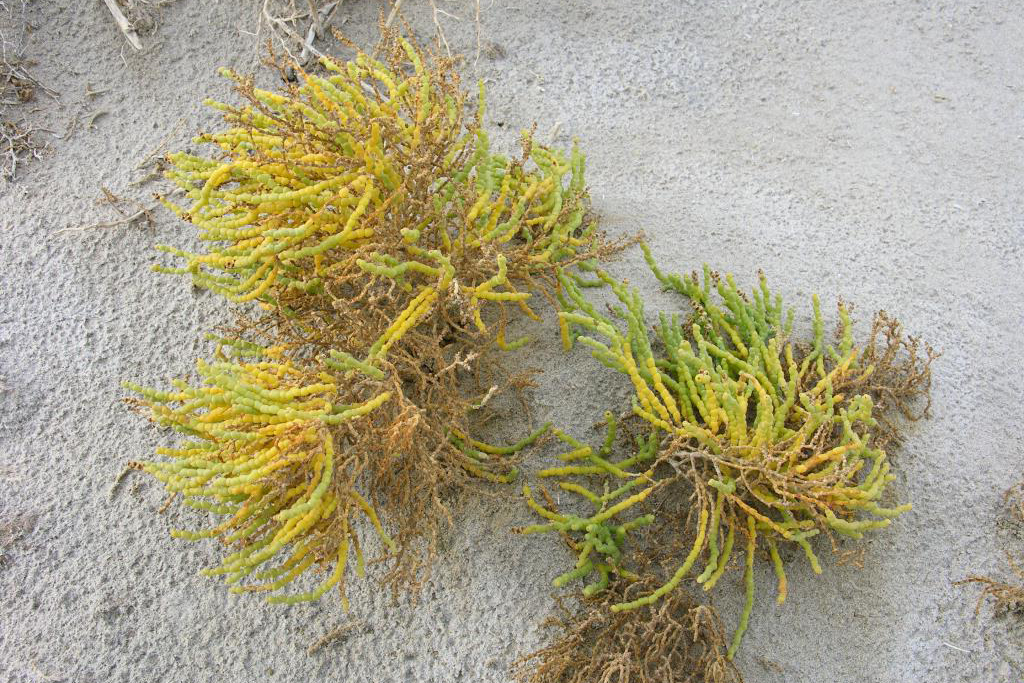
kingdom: Plantae
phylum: Tracheophyta
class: Magnoliopsida
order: Caryophyllales
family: Amaranthaceae
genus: Allenrolfea
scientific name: Allenrolfea occidentalis
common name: Iodine-bush
